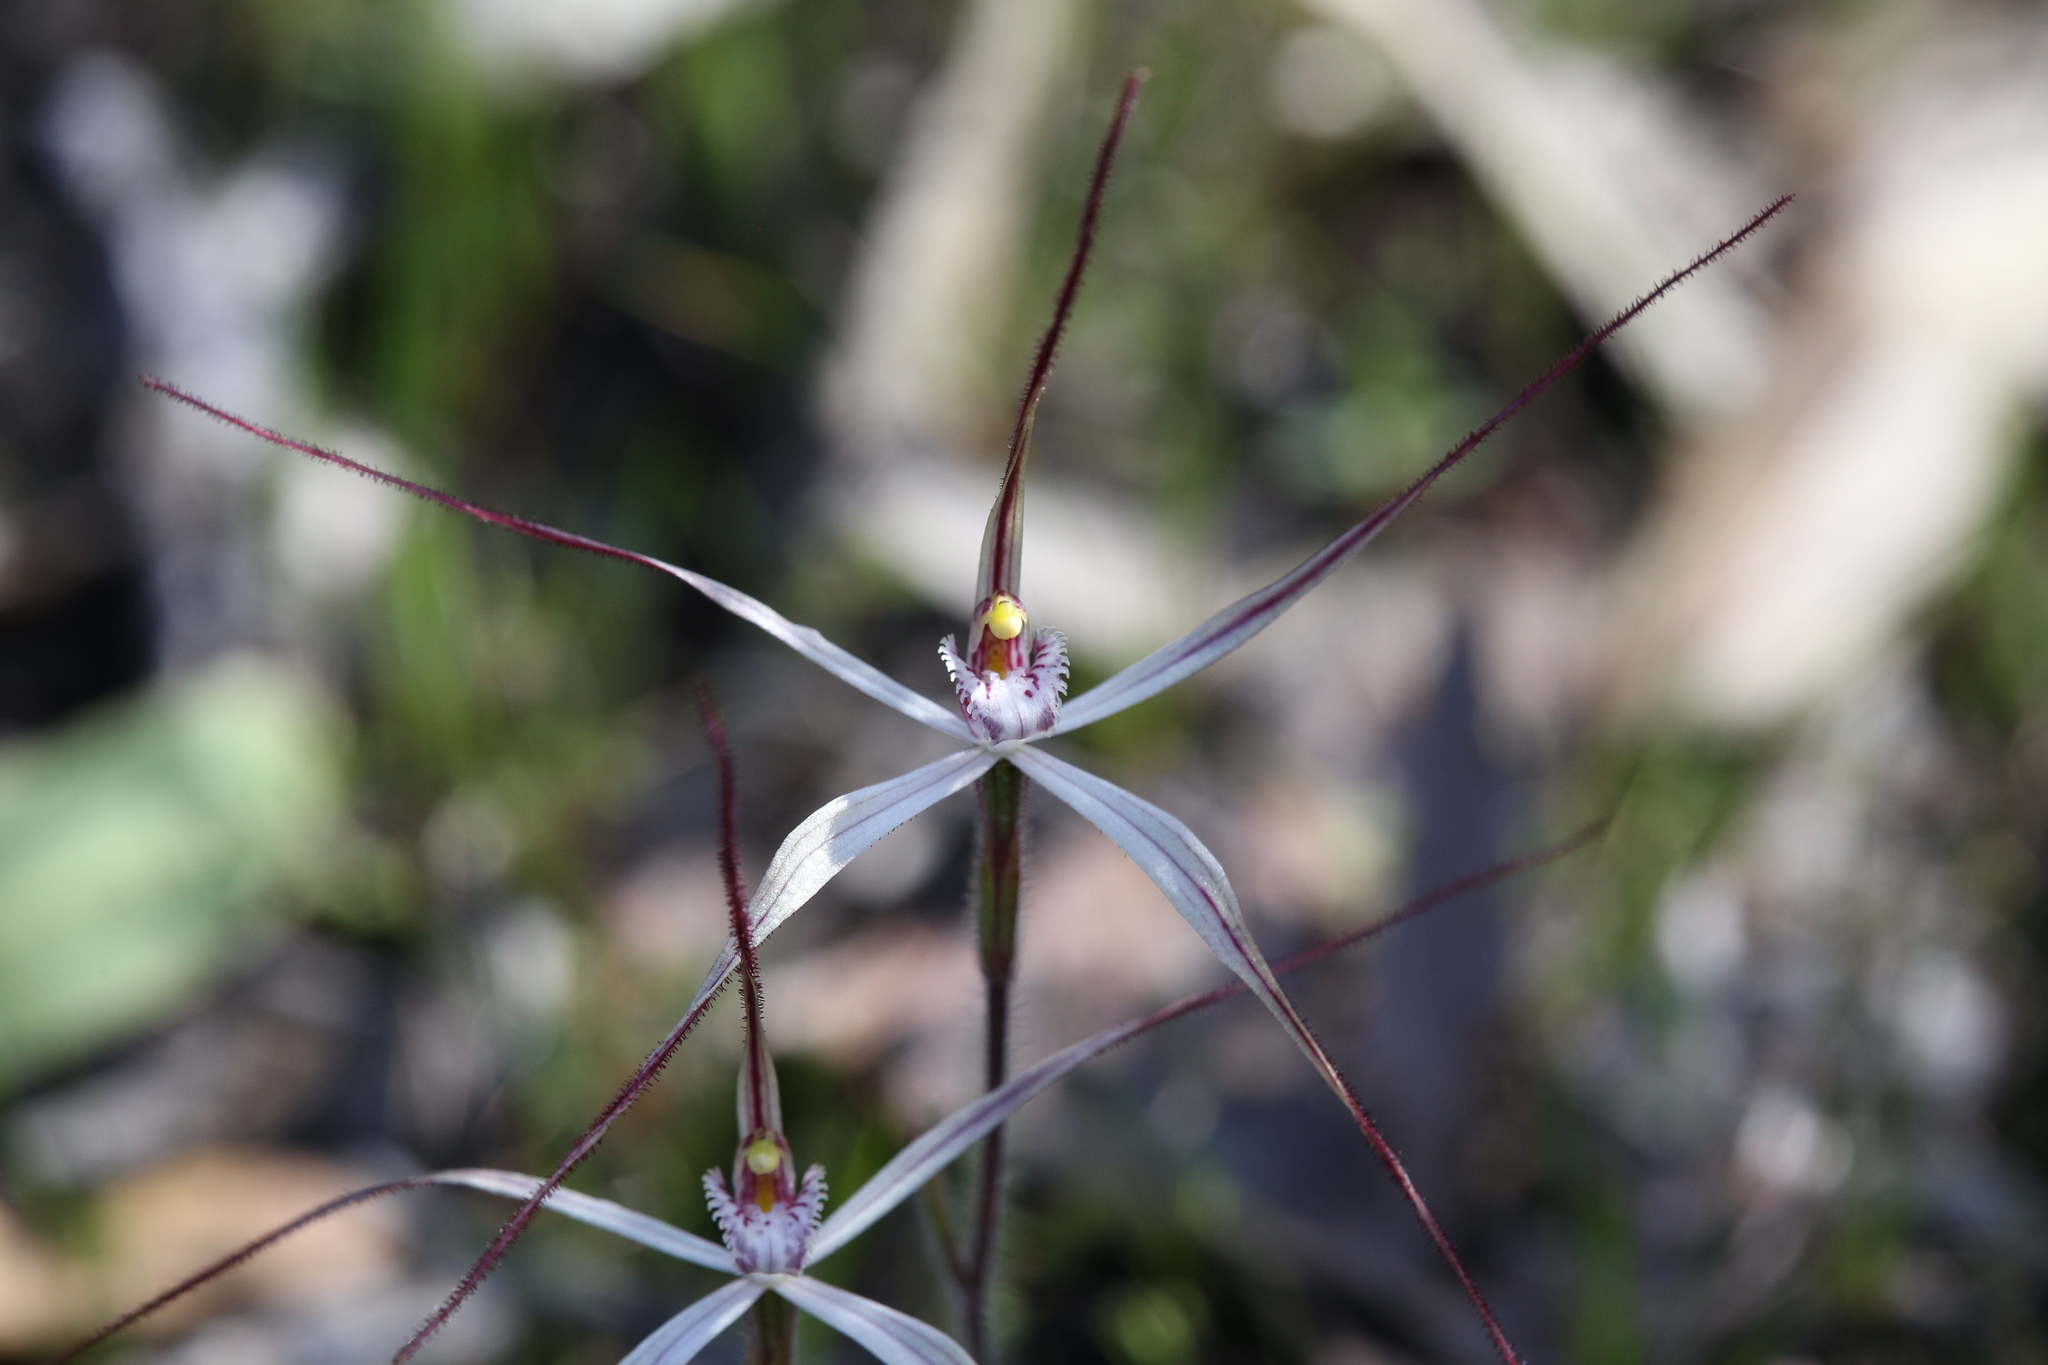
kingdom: Plantae
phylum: Tracheophyta
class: Liliopsida
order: Asparagales
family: Orchidaceae
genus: Caladenia
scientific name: Caladenia fluvialis
